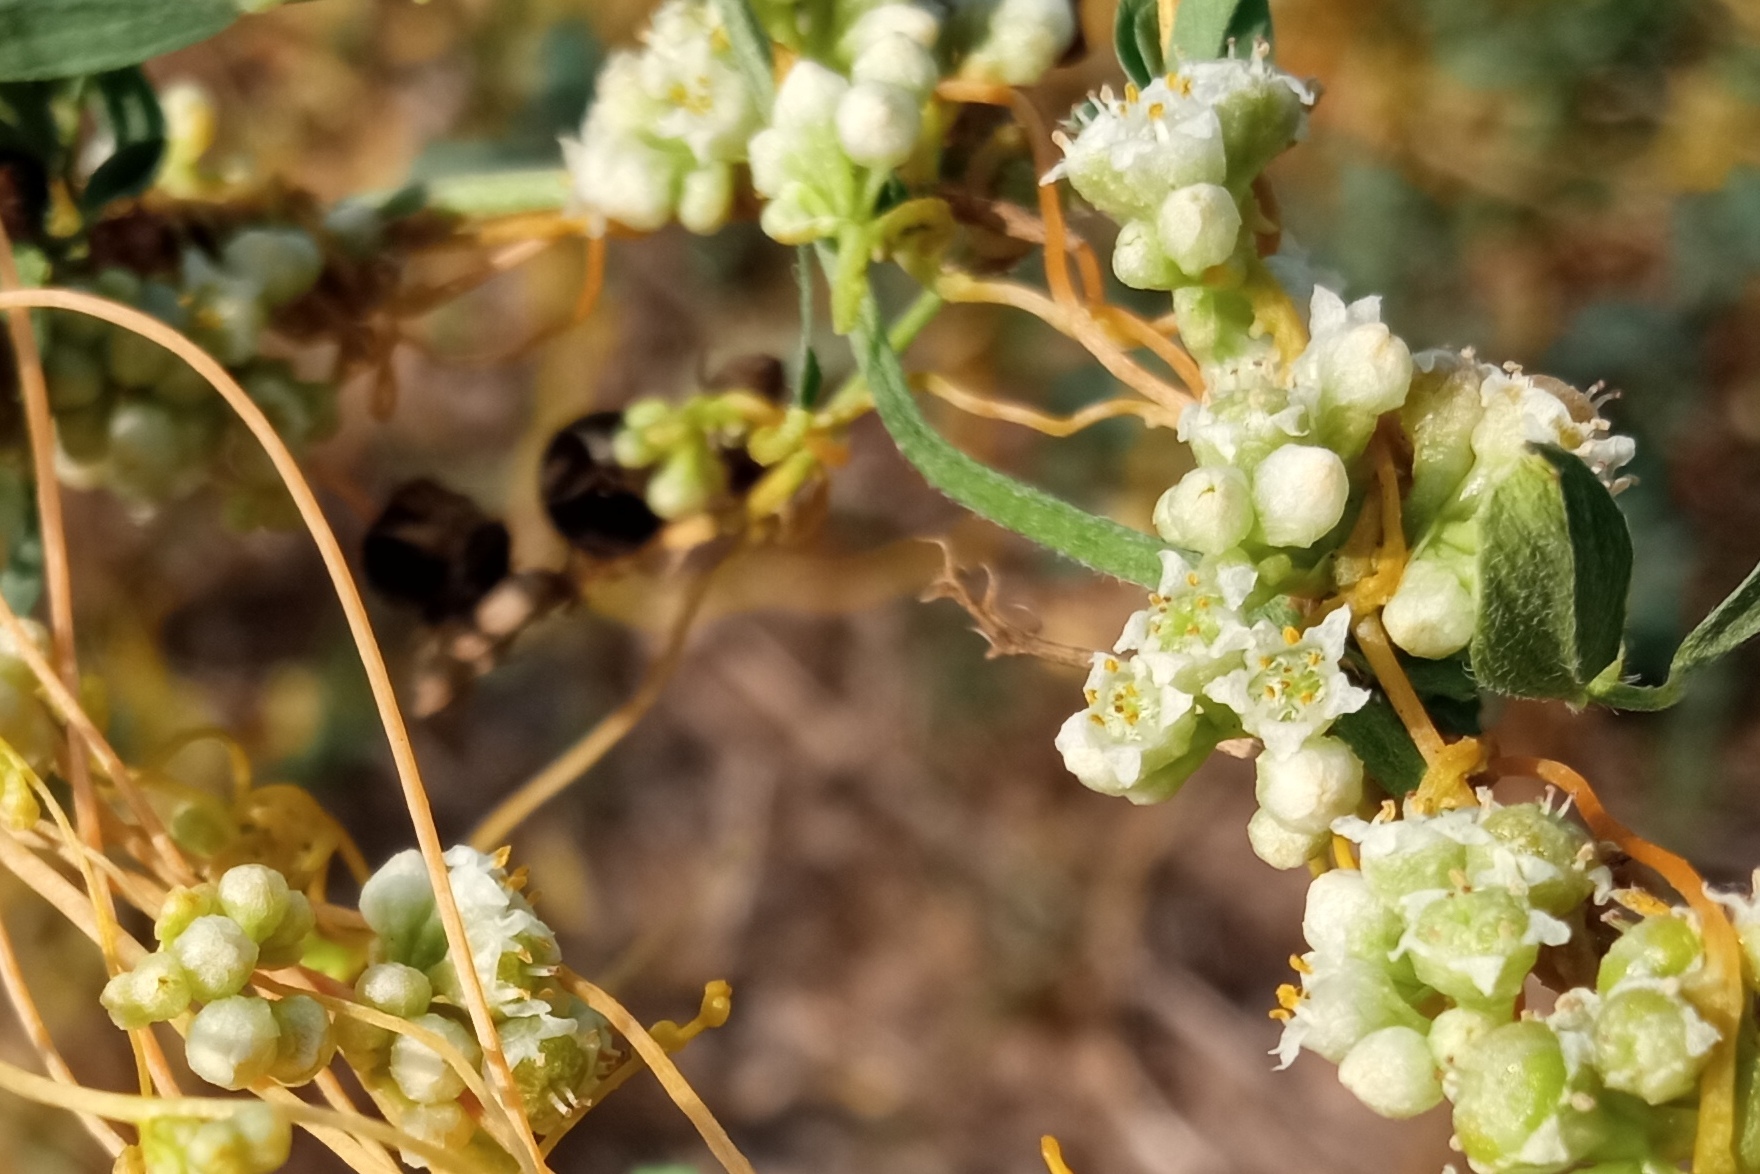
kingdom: Plantae
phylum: Tracheophyta
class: Magnoliopsida
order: Solanales
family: Convolvulaceae
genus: Cuscuta
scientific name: Cuscuta campestris
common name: Yellow dodder
